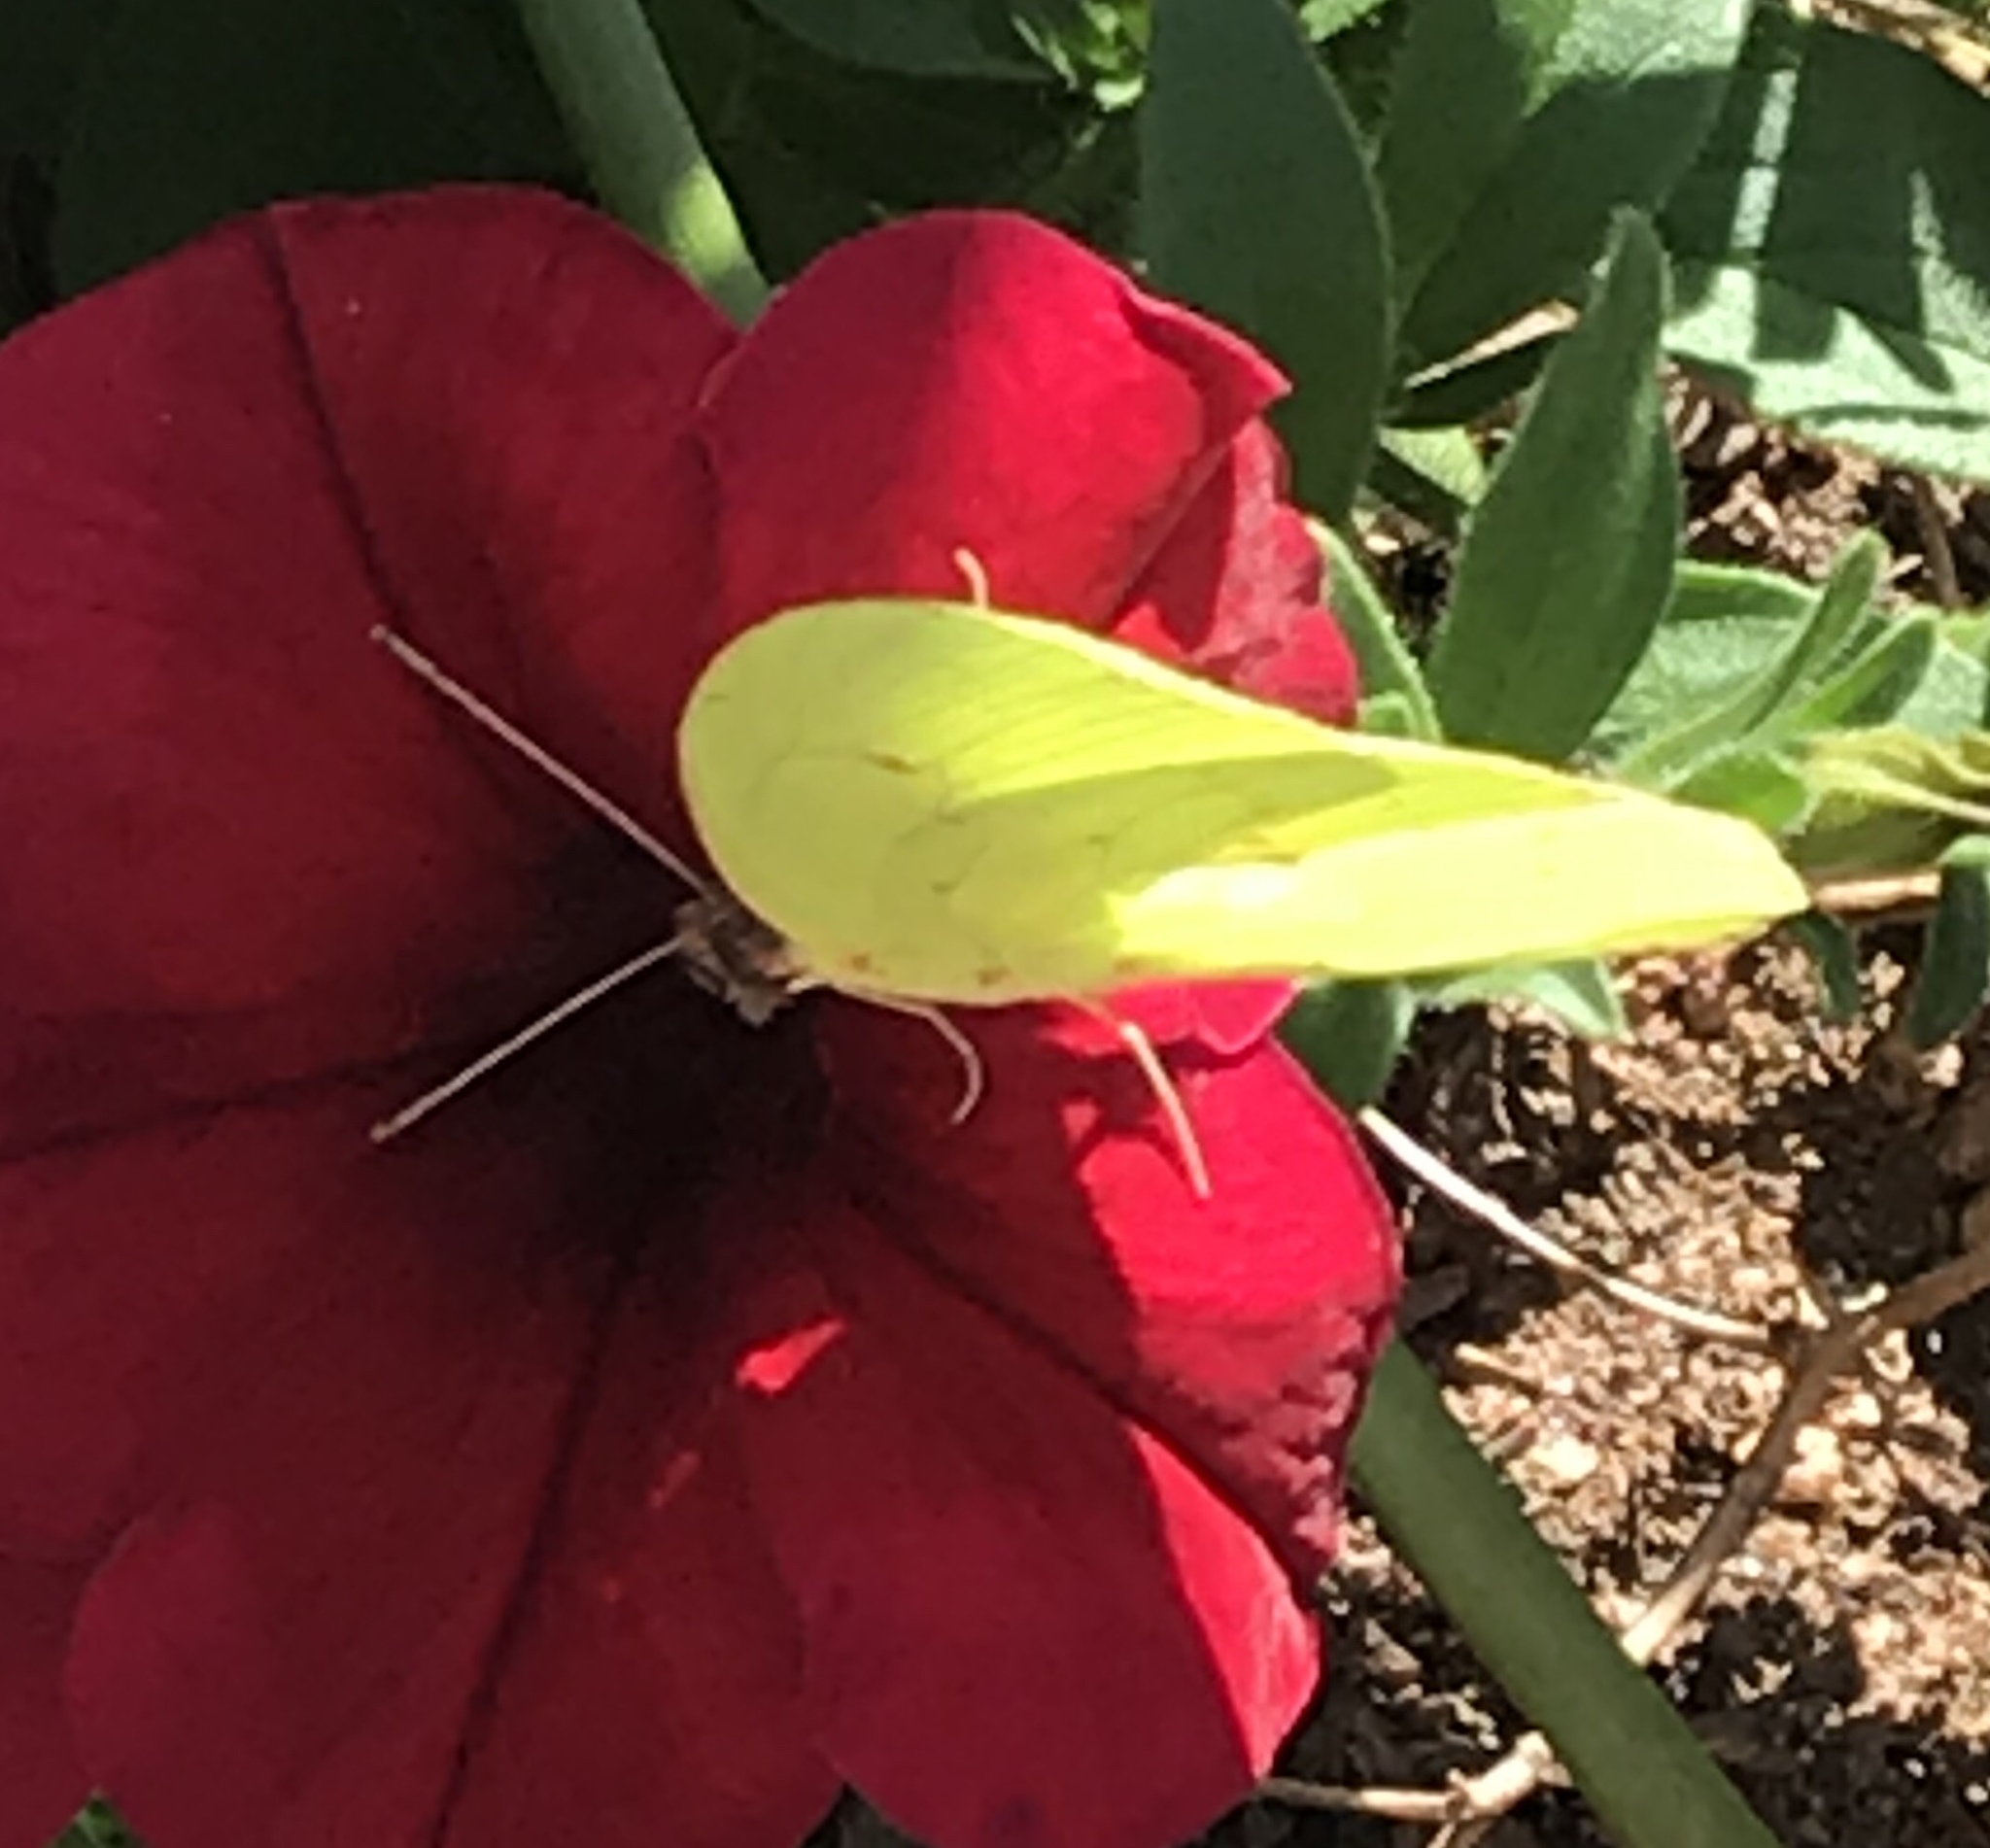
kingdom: Animalia
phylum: Arthropoda
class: Insecta
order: Lepidoptera
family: Pieridae
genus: Phoebis
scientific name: Phoebis sennae
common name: Cloudless sulphur
